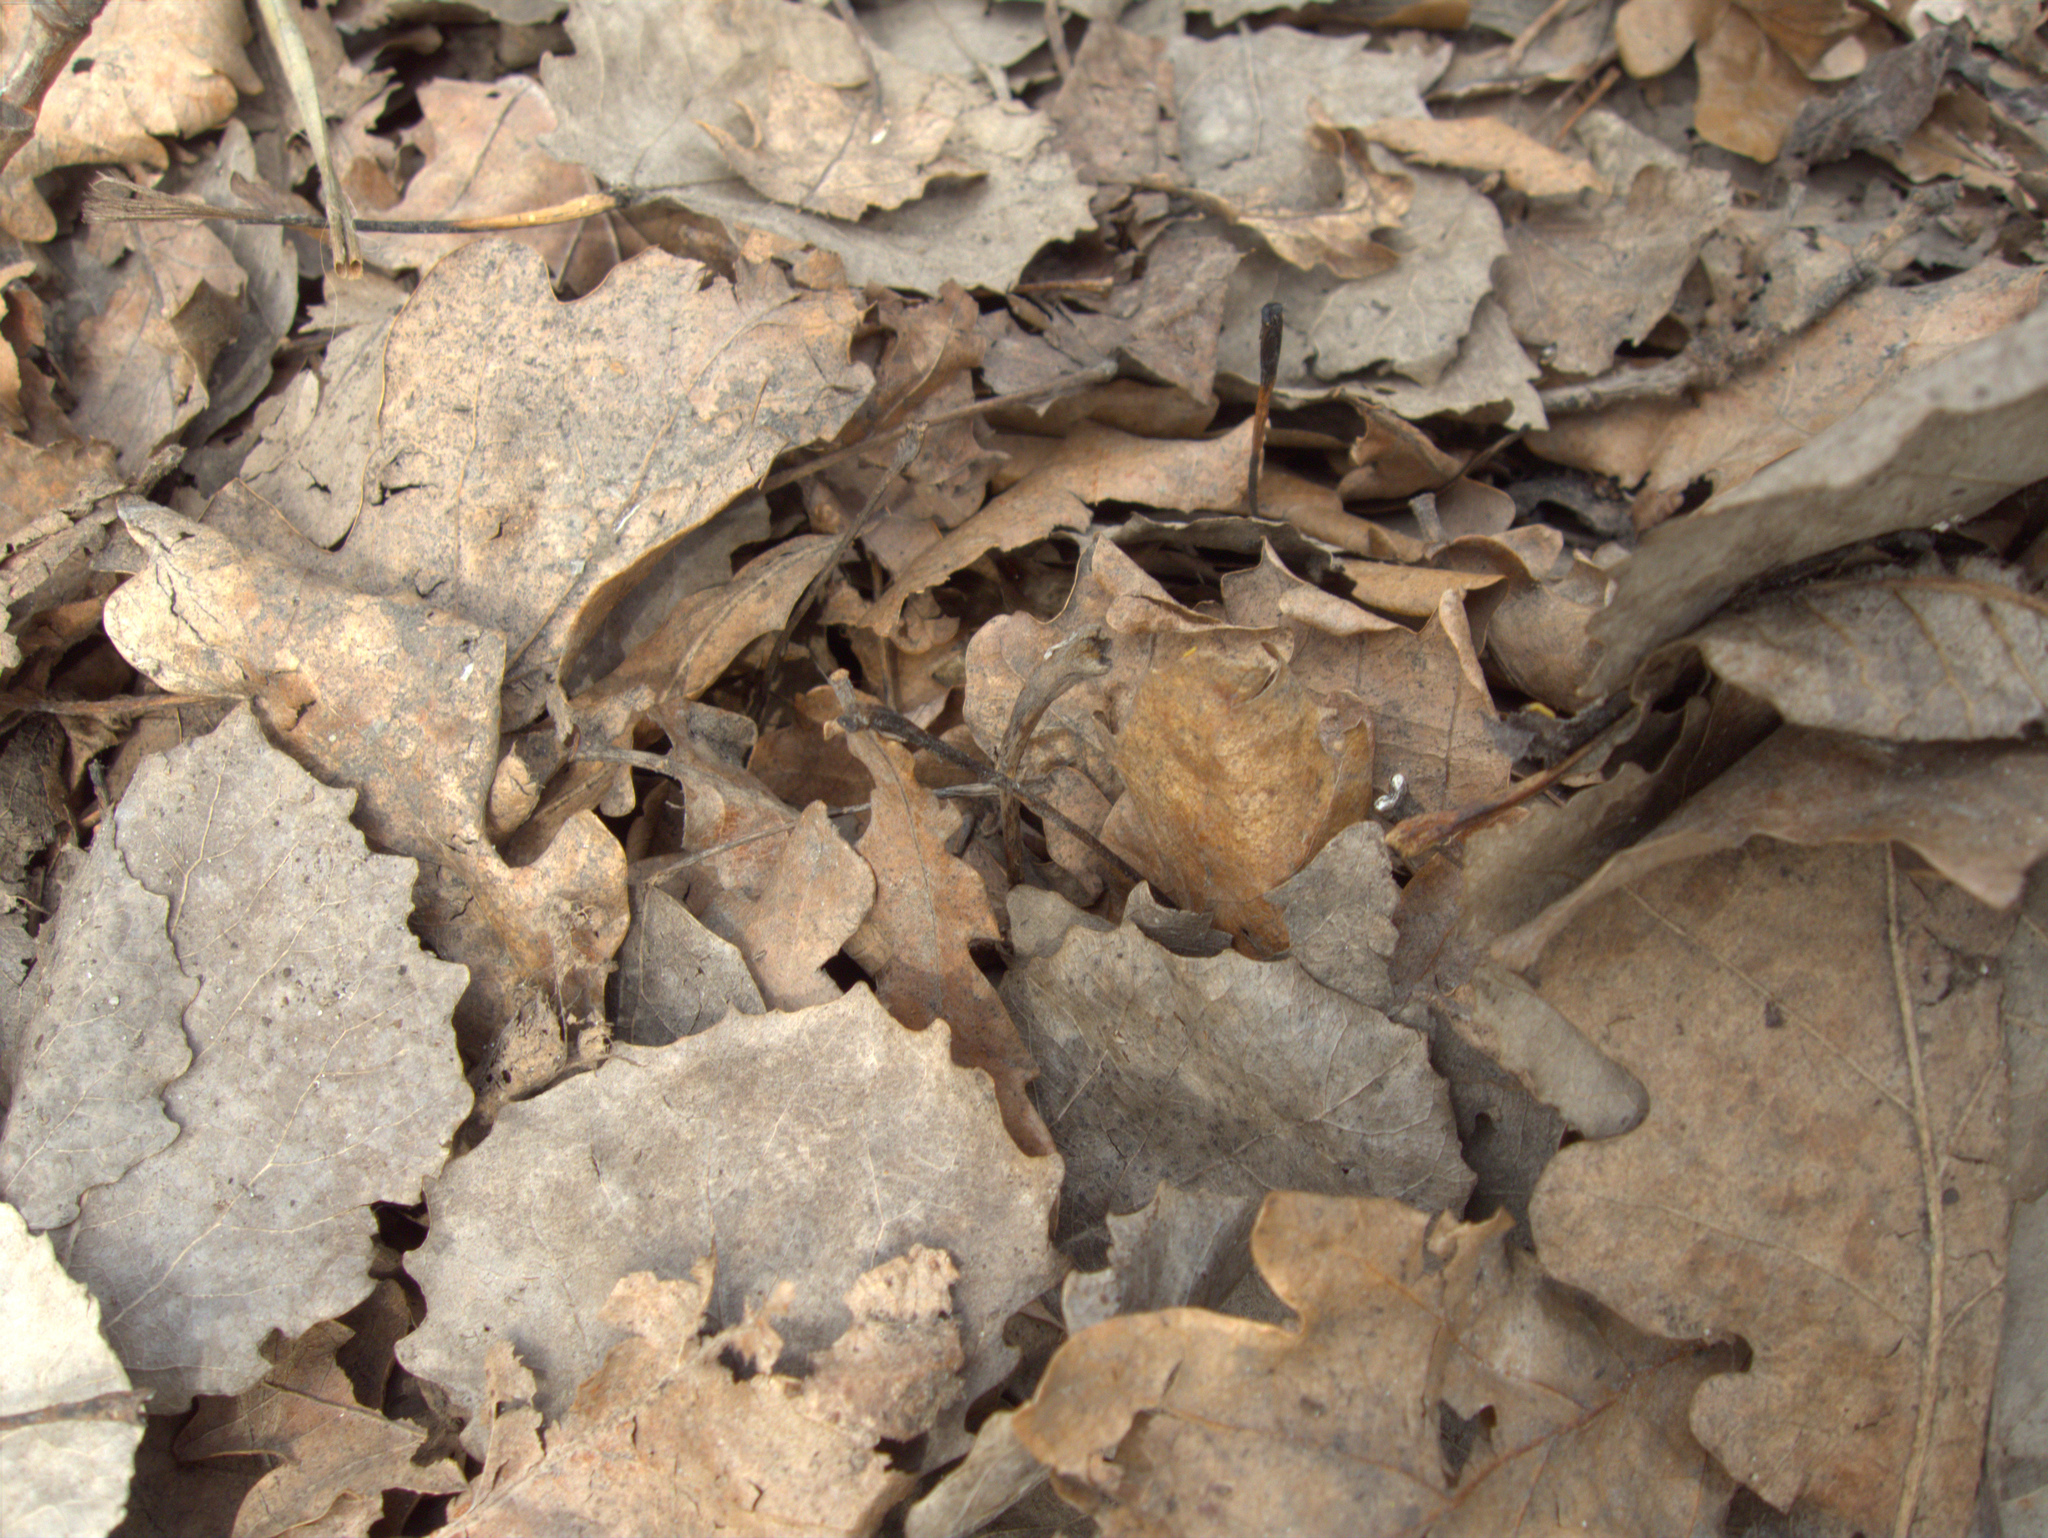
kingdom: Plantae
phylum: Tracheophyta
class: Magnoliopsida
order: Fagales
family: Fagaceae
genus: Quercus
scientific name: Quercus robur
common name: Pedunculate oak
